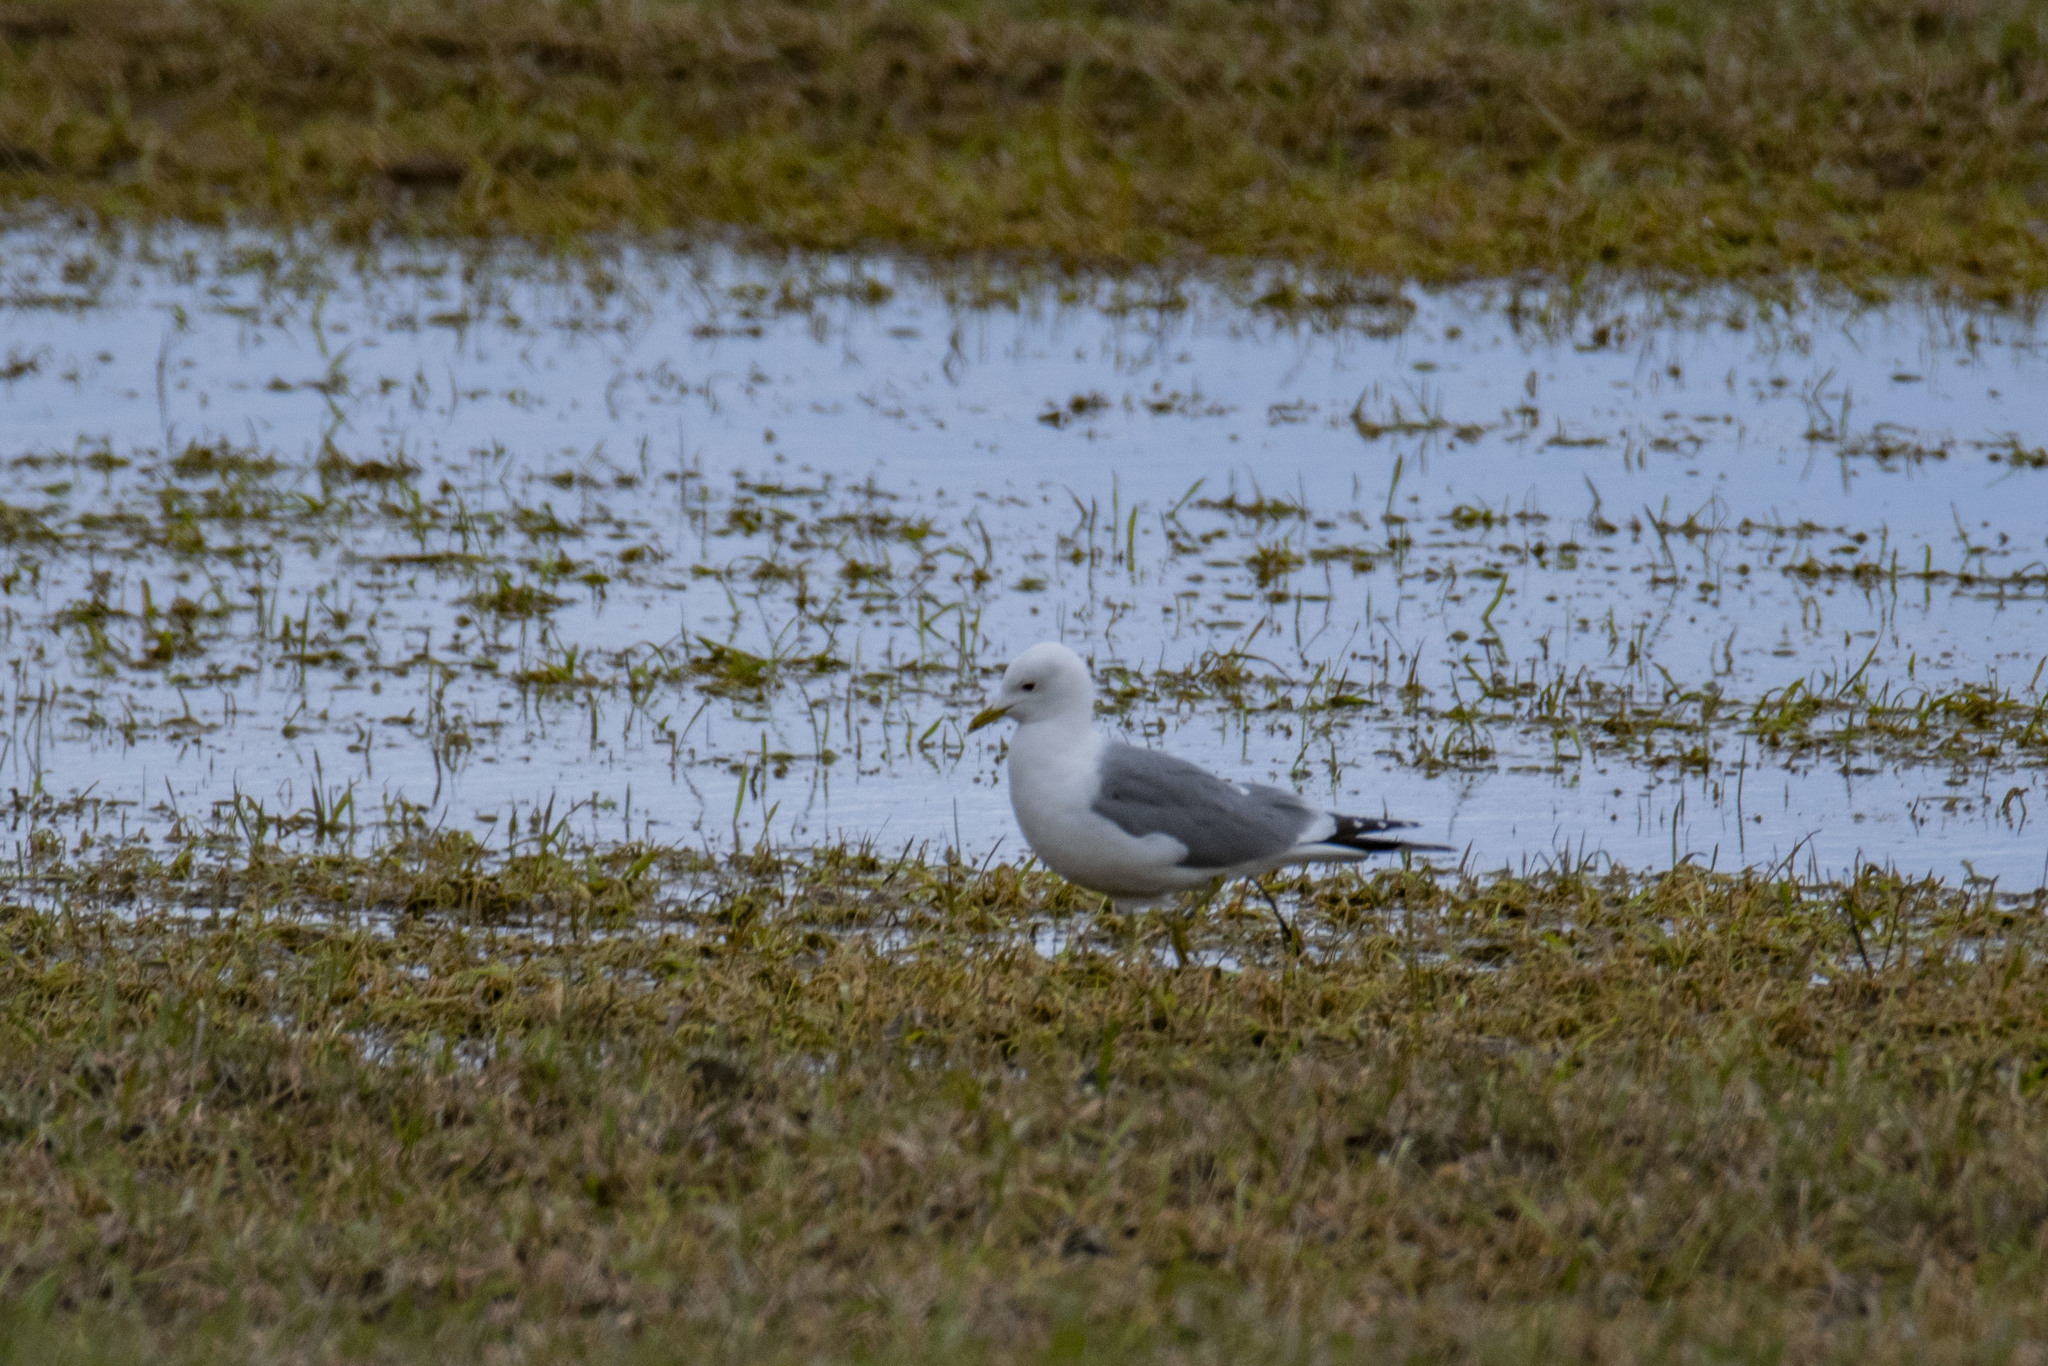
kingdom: Animalia
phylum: Chordata
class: Aves
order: Charadriiformes
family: Laridae
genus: Larus
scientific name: Larus canus
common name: Mew gull
